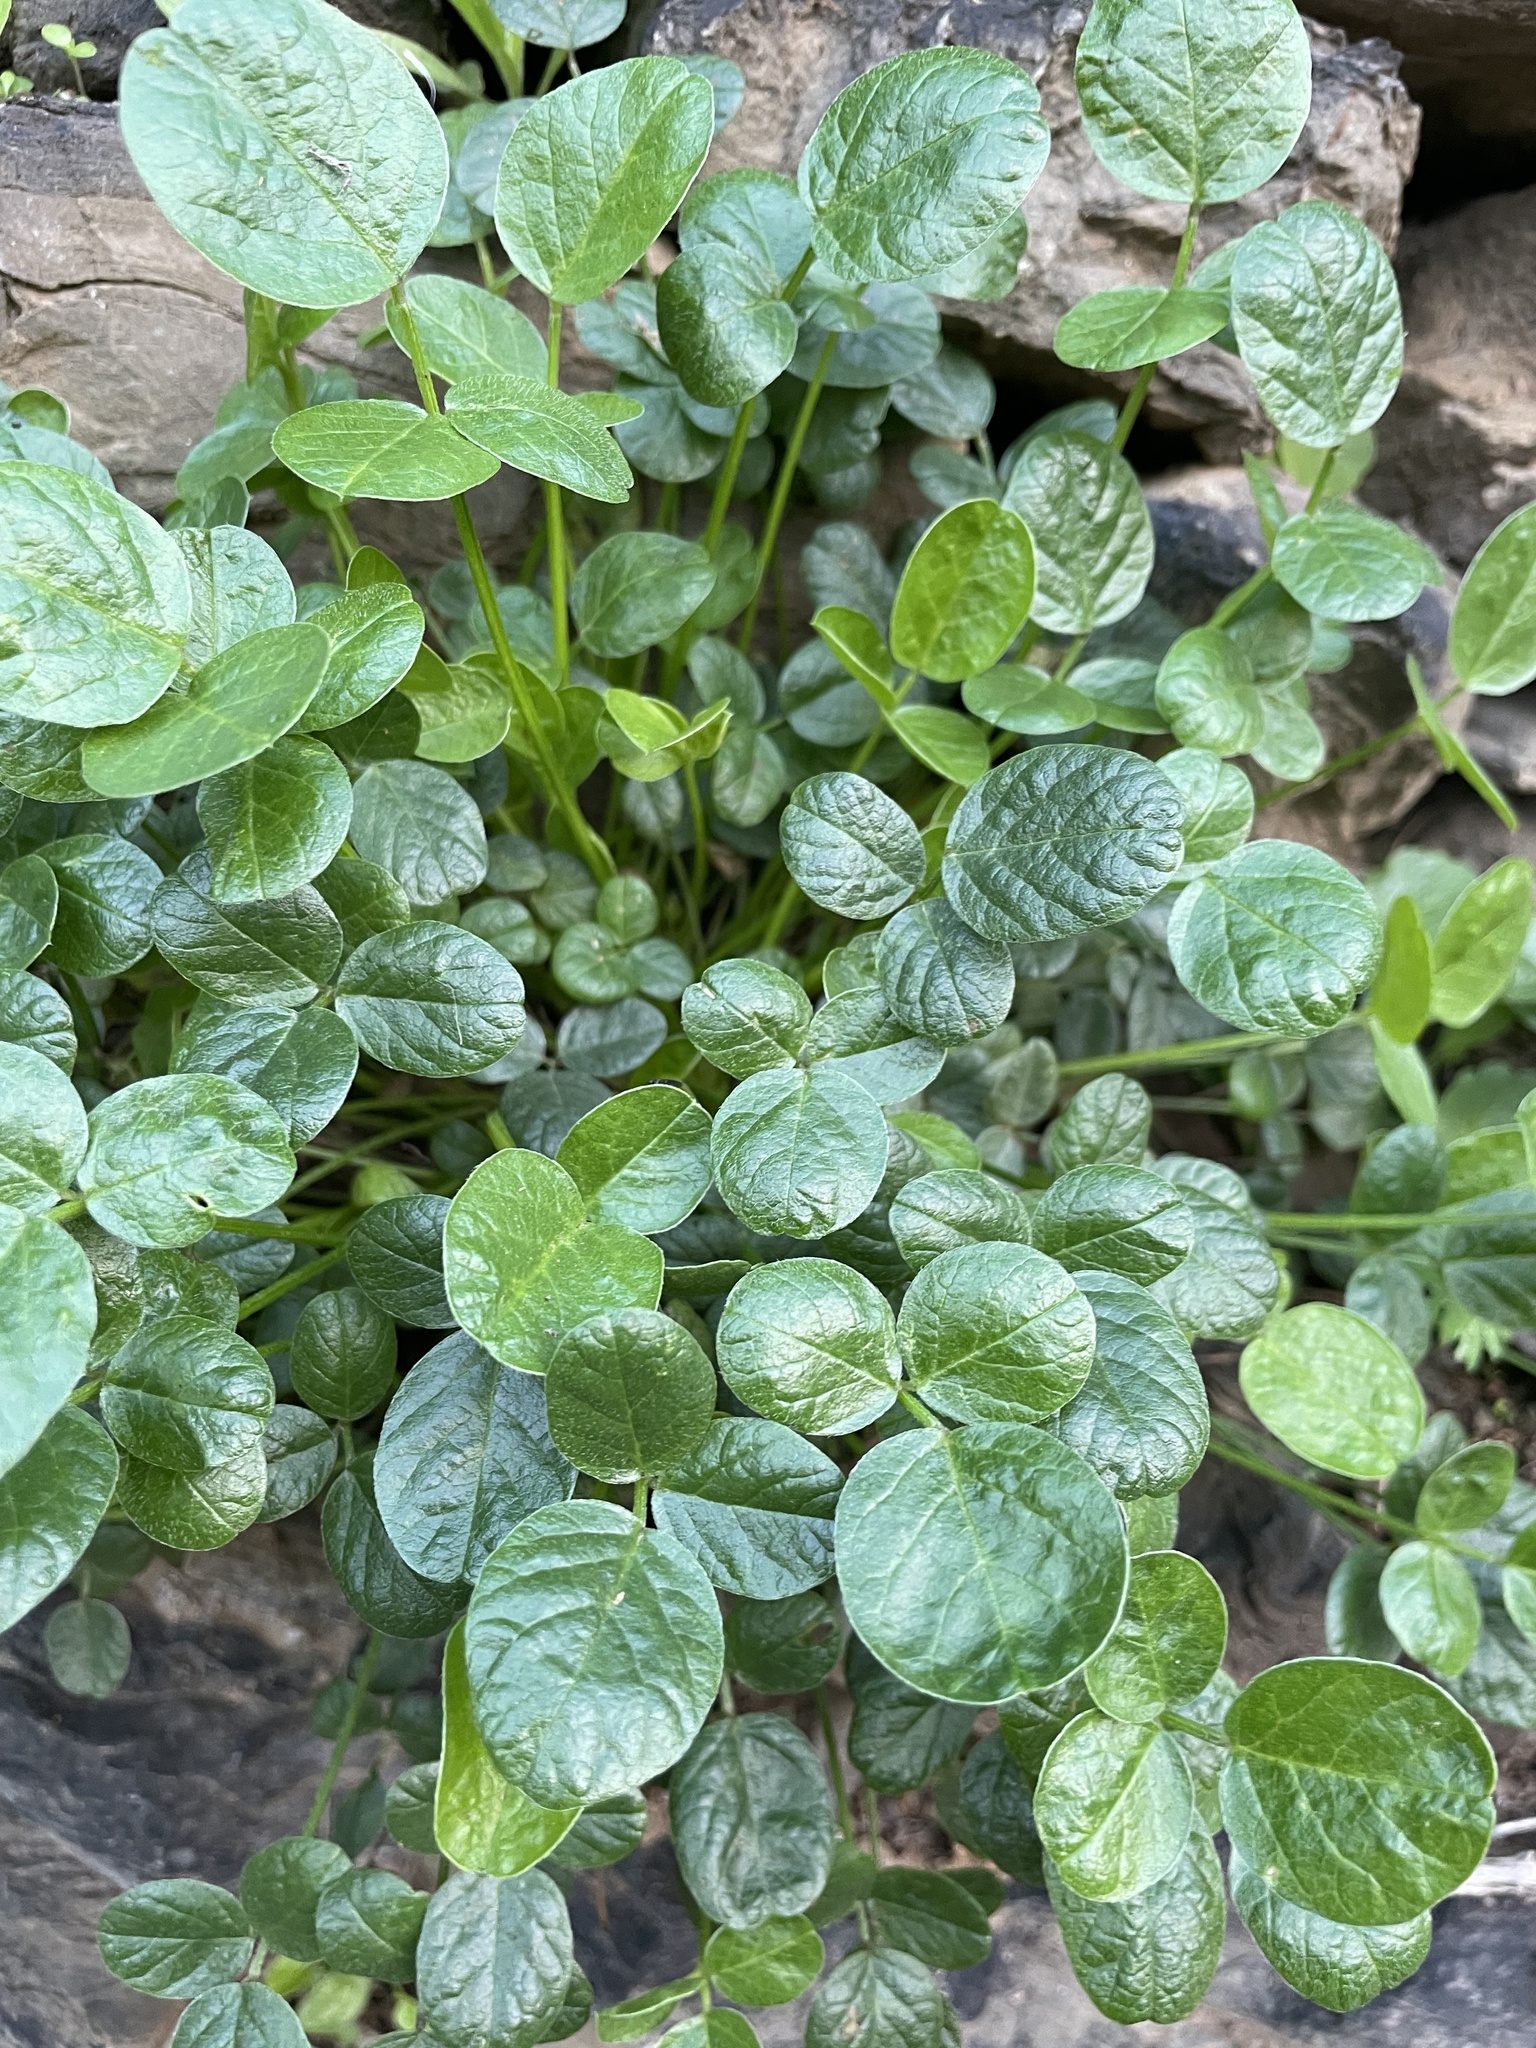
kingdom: Plantae
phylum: Tracheophyta
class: Magnoliopsida
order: Fabales
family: Fabaceae
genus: Bituminaria
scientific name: Bituminaria bituminosa
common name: Arabian pea
